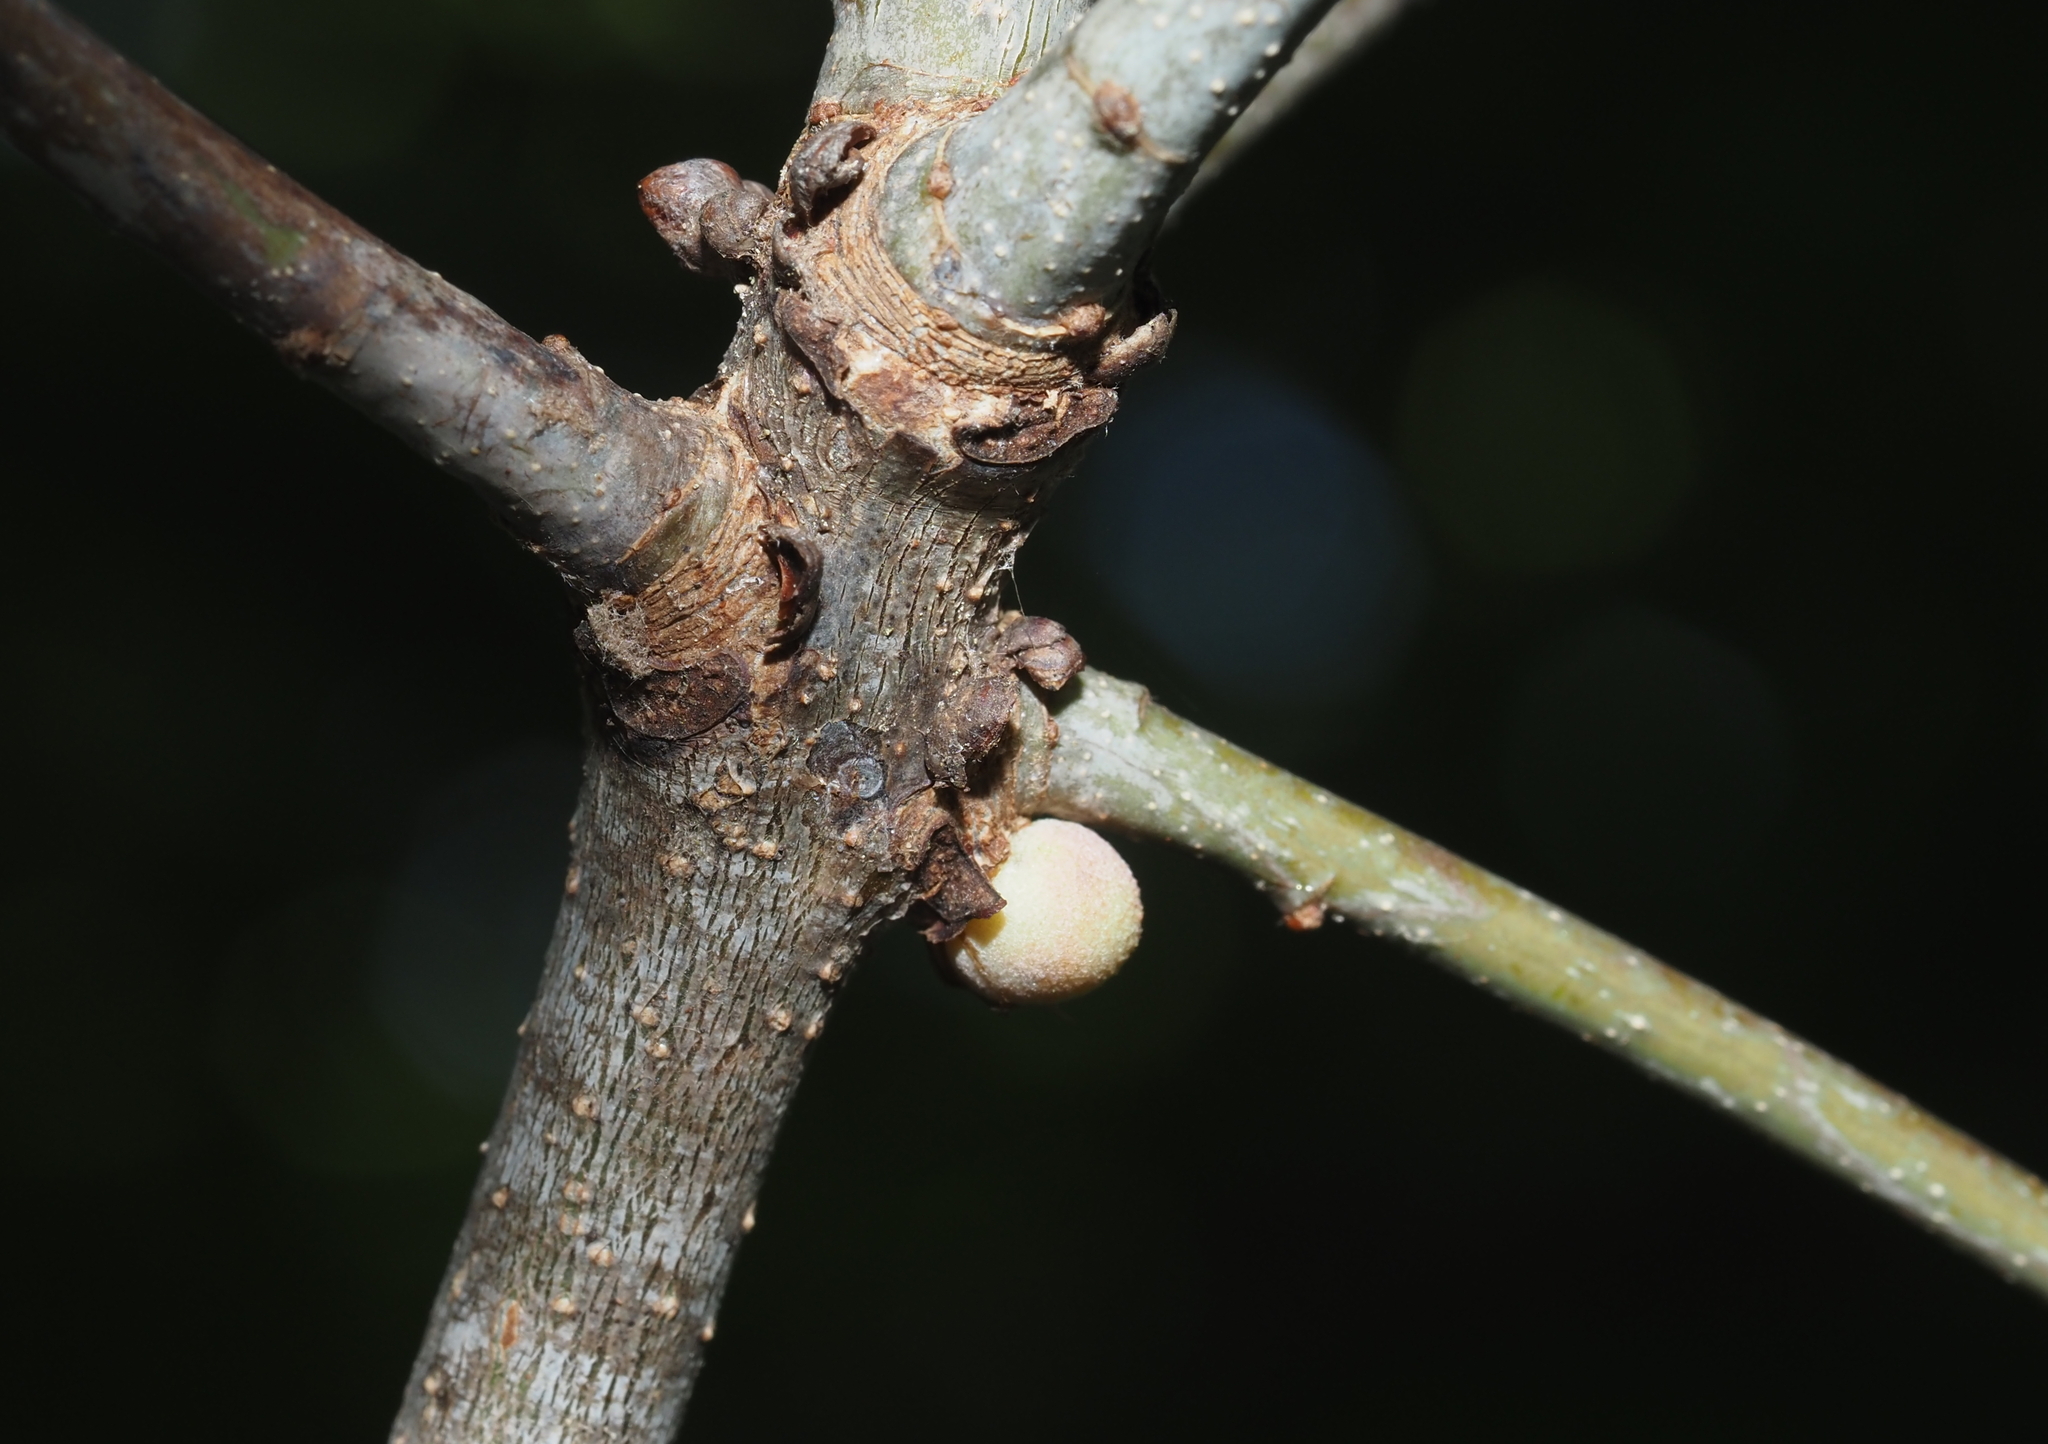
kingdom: Animalia
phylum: Arthropoda
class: Insecta
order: Hymenoptera
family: Cynipidae
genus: Disholcaspis
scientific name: Disholcaspis quercusglobulus
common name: Round bullet gall wasp
